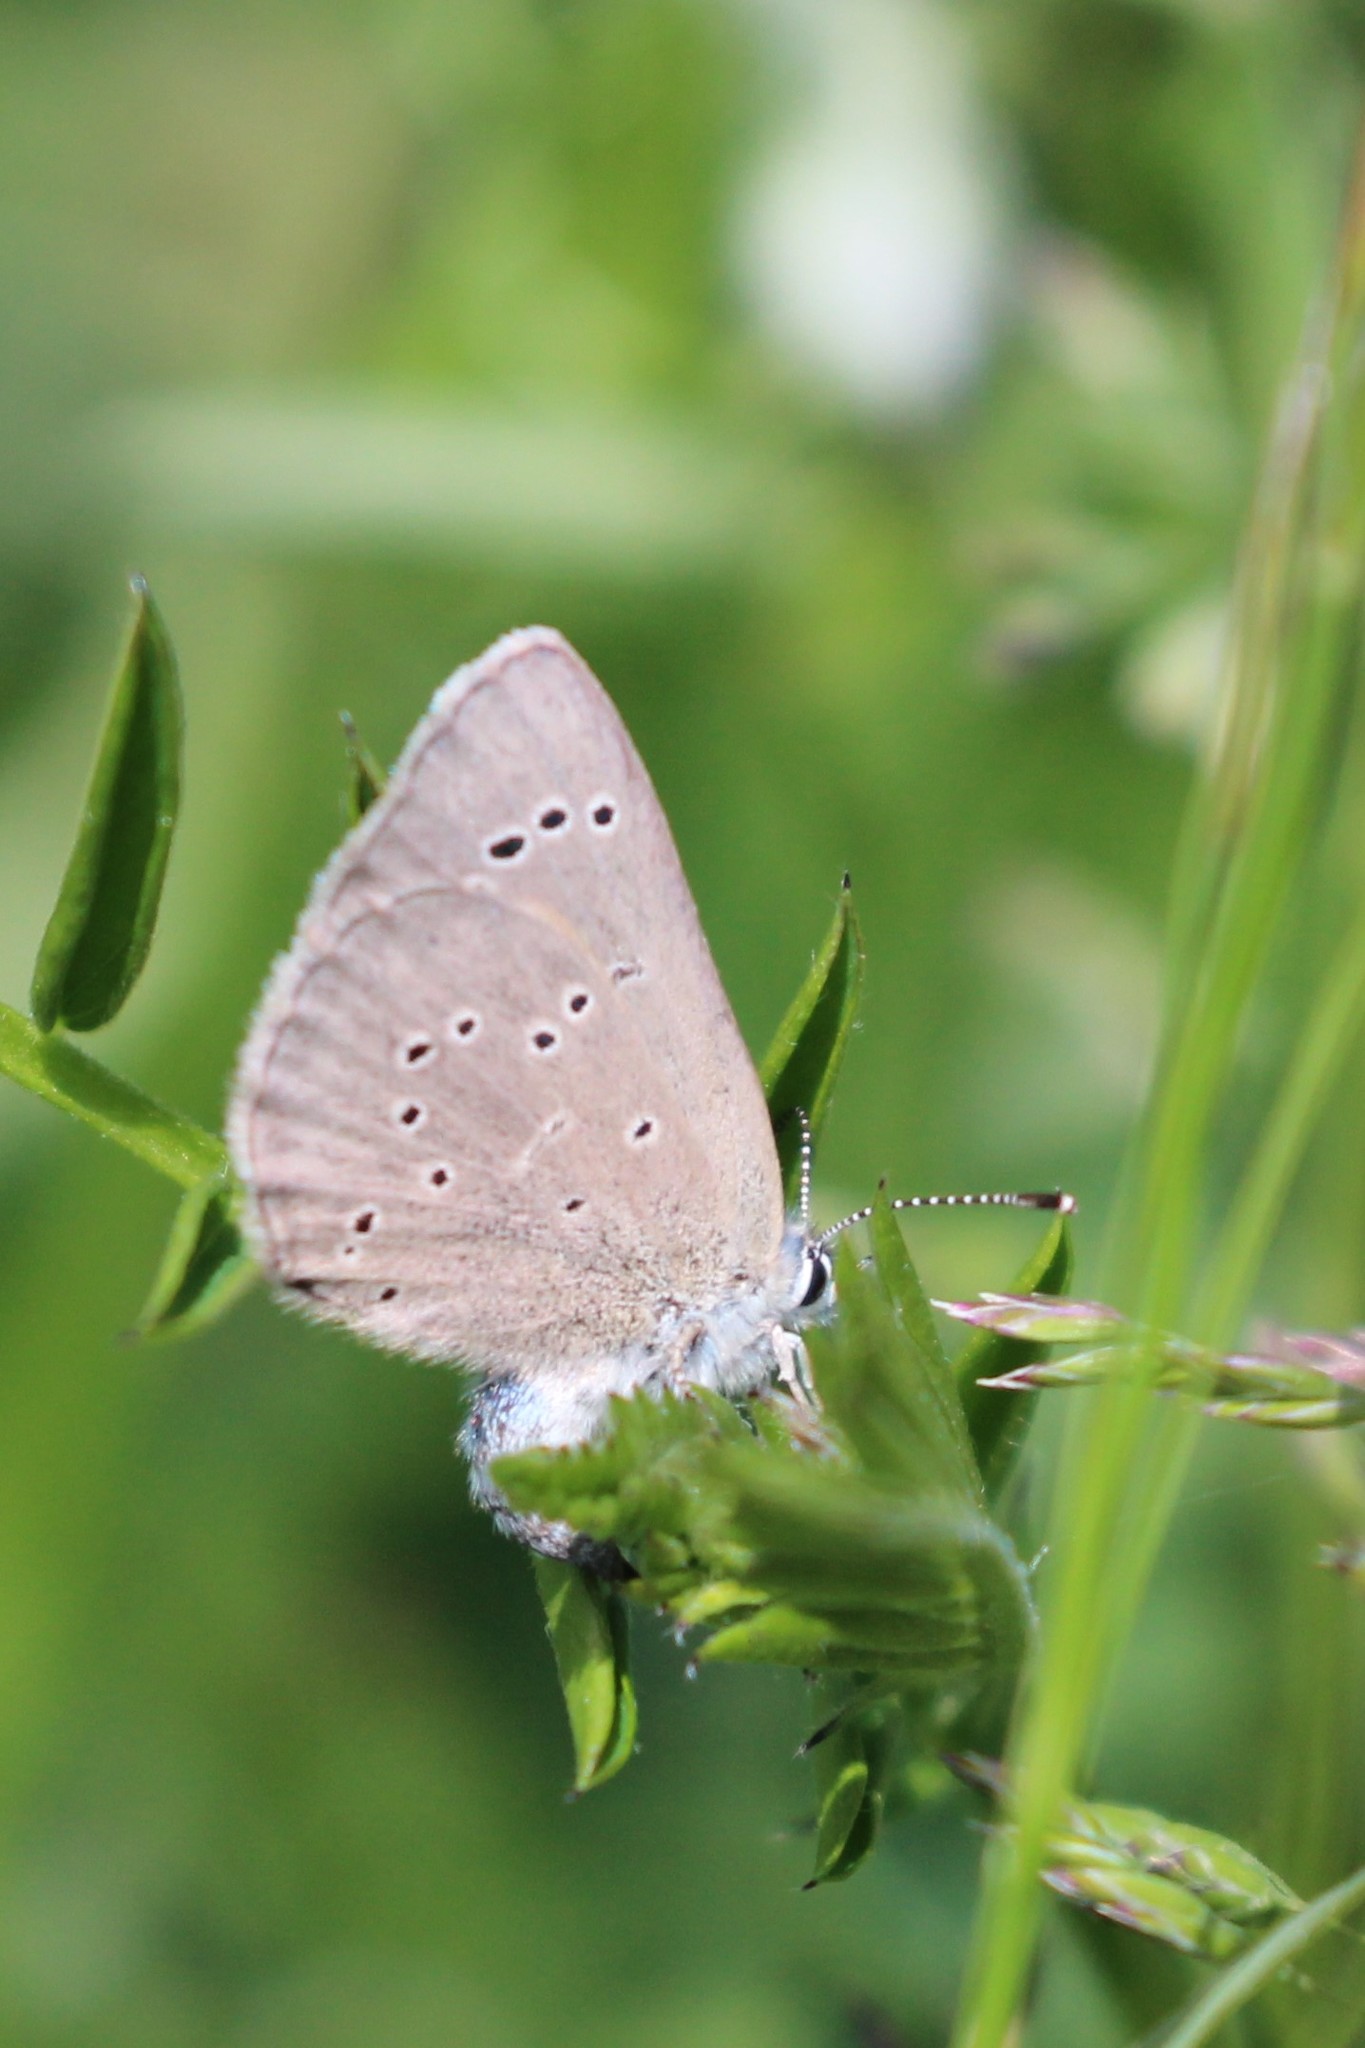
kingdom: Animalia
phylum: Arthropoda
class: Insecta
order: Lepidoptera
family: Lycaenidae
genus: Glaucopsyche
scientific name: Glaucopsyche lygdamus
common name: Silvery blue
